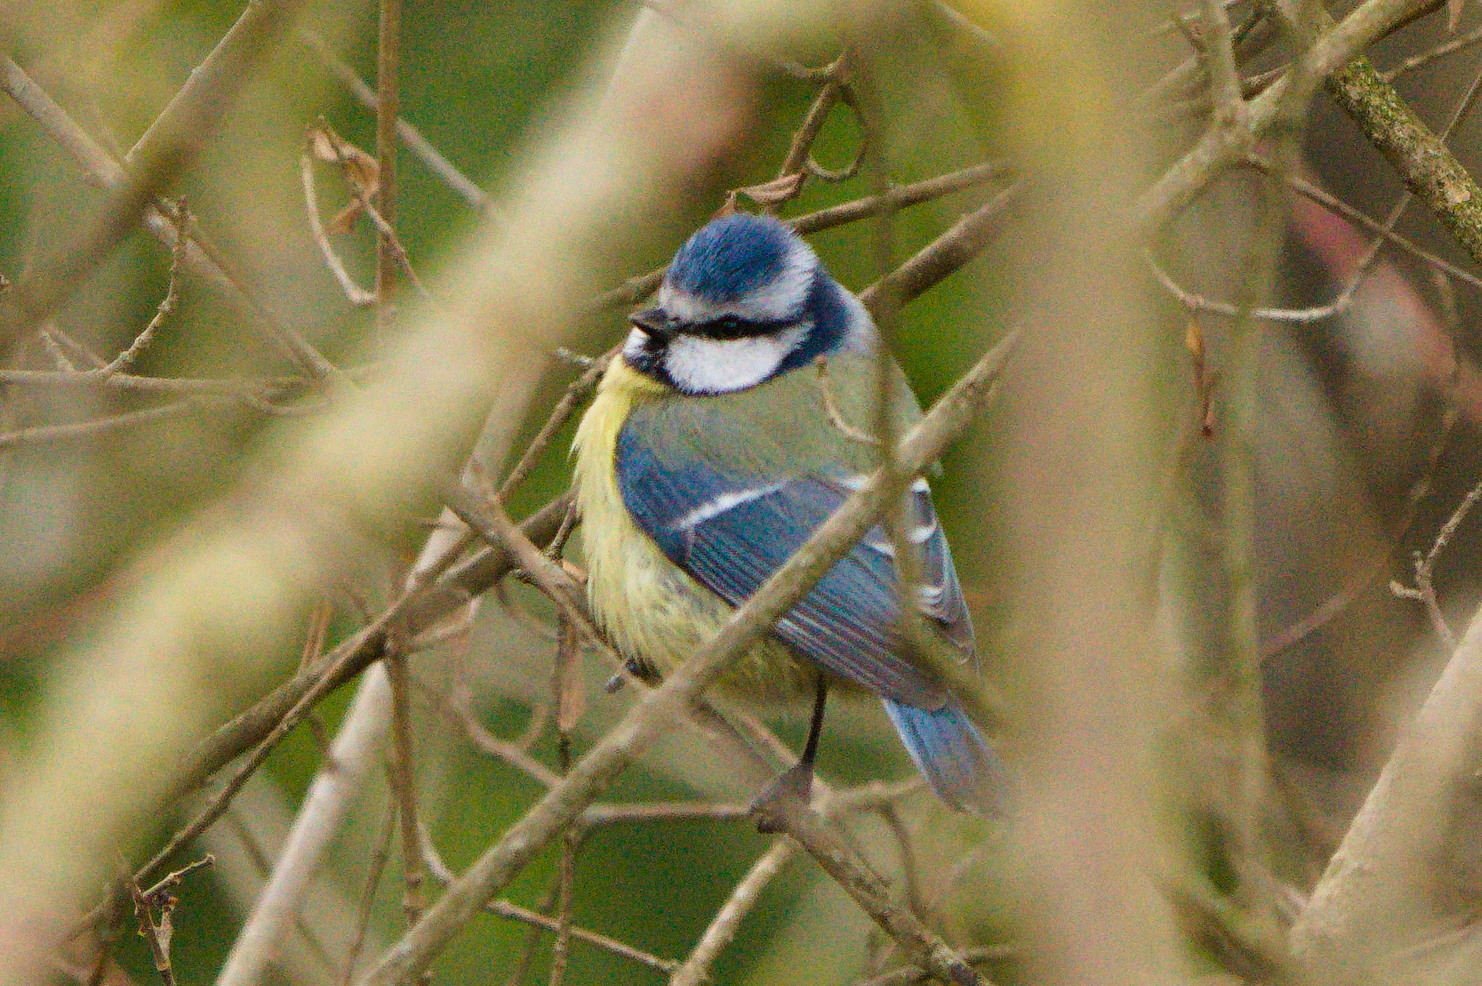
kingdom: Animalia
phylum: Chordata
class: Aves
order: Passeriformes
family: Paridae
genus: Cyanistes
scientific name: Cyanistes caeruleus
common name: Eurasian blue tit
